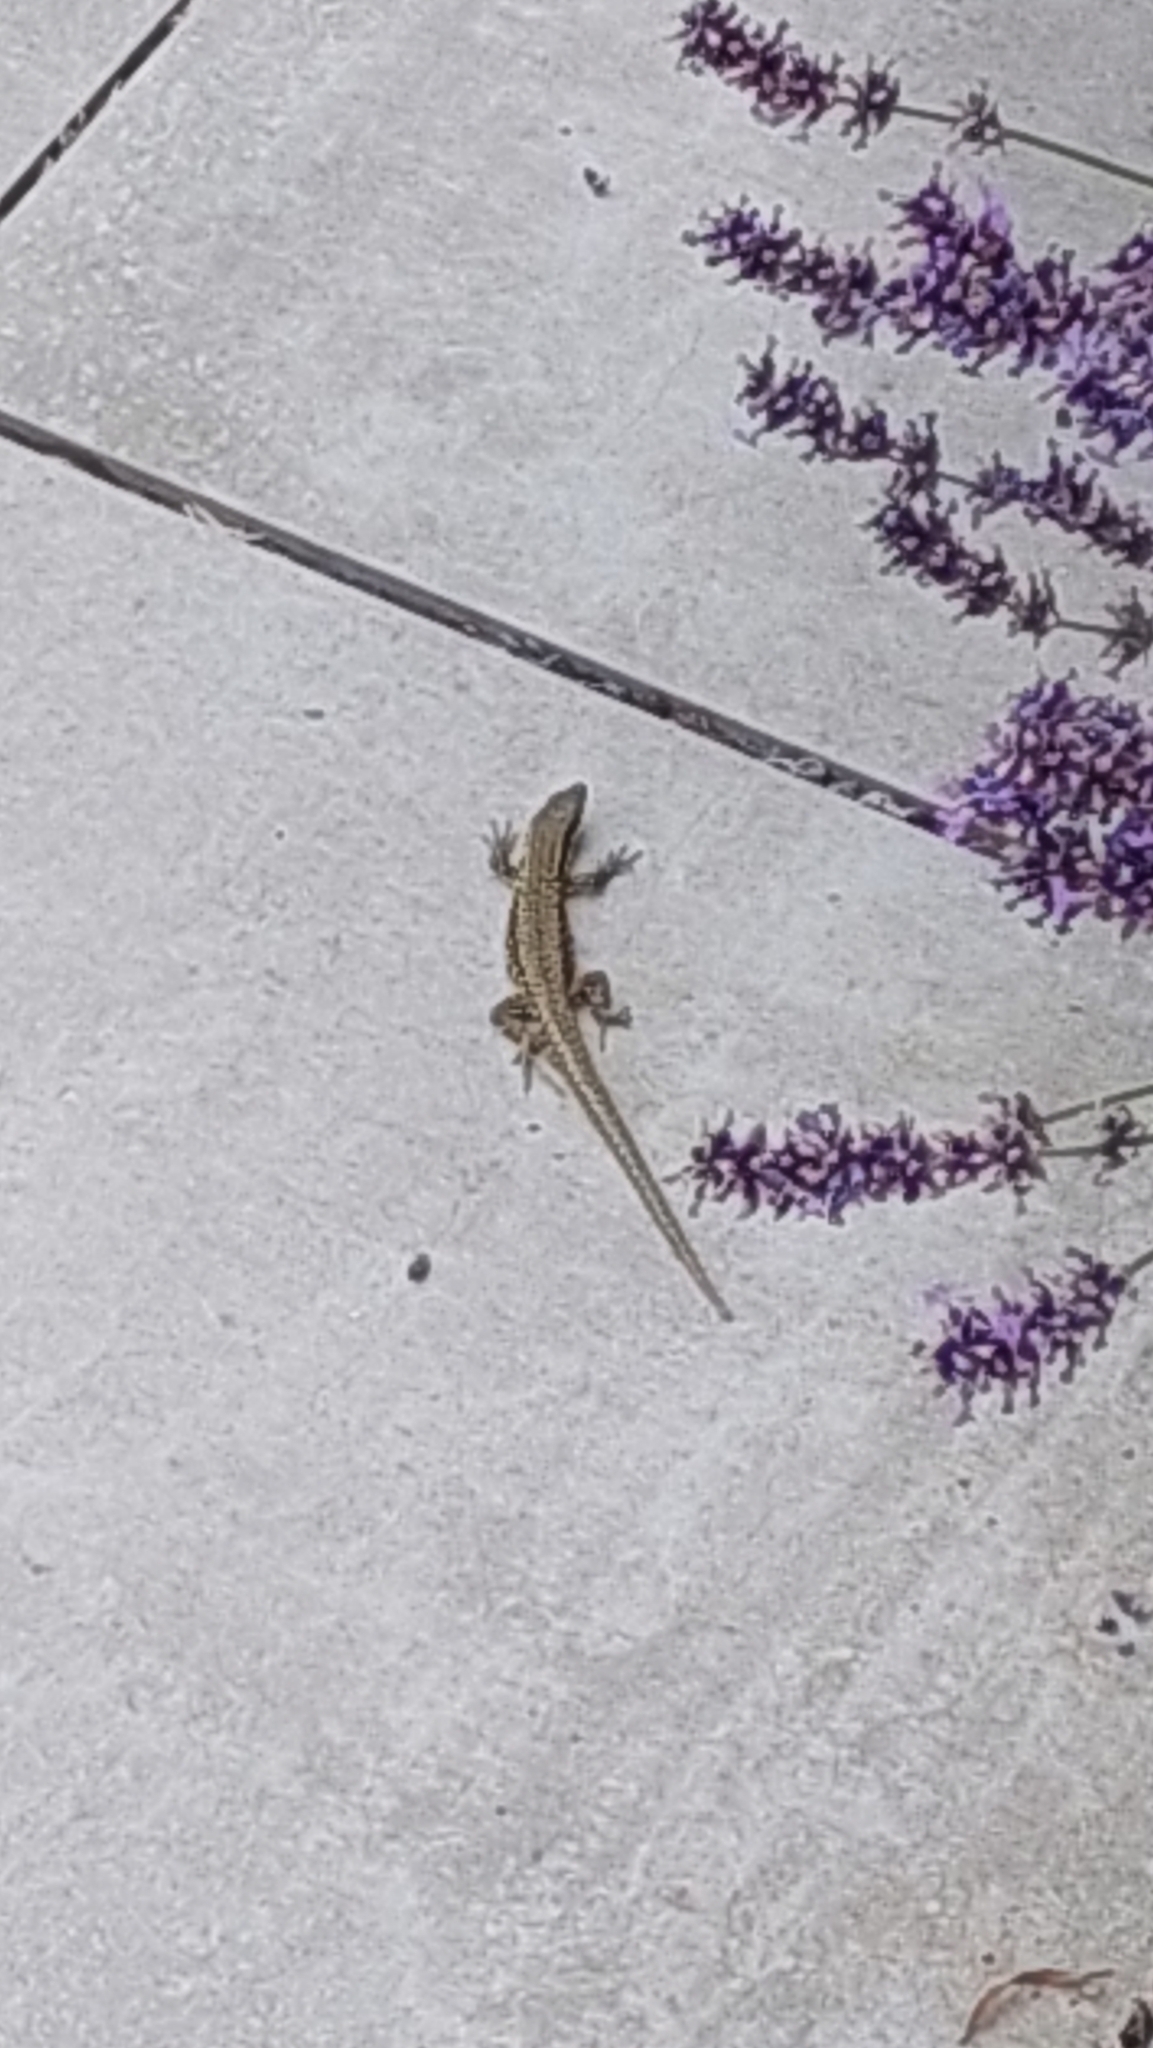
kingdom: Animalia
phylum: Chordata
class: Squamata
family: Lacertidae
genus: Podarcis
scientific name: Podarcis muralis
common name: Common wall lizard
